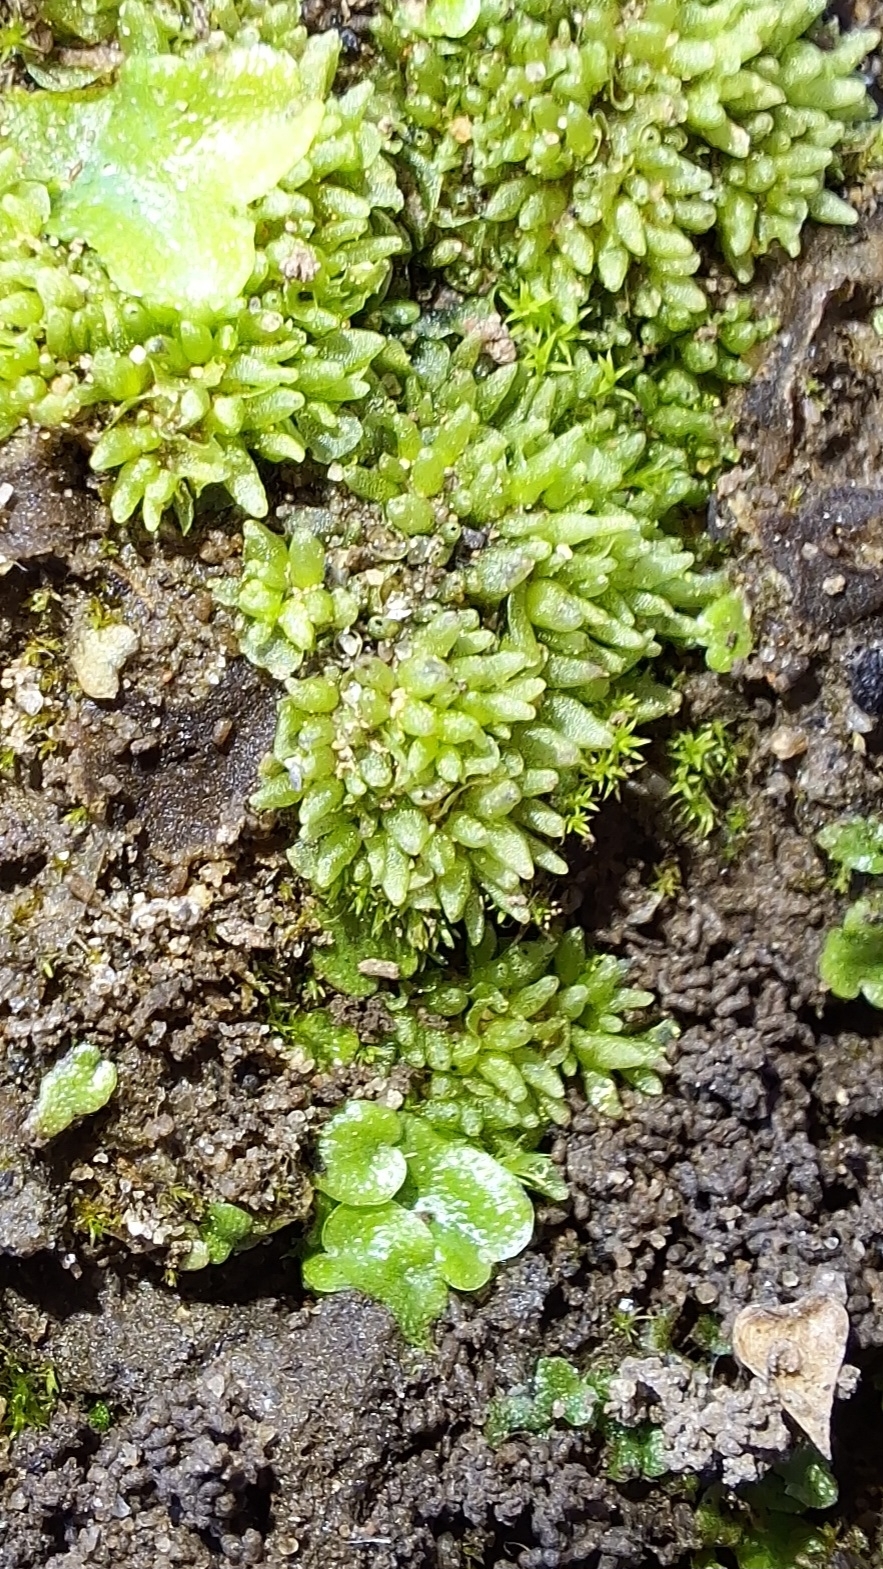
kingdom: Plantae
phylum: Marchantiophyta
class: Marchantiopsida
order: Sphaerocarpales
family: Sphaerocarpaceae
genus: Sphaerocarpos
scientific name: Sphaerocarpos texanus
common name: Texas balloonwort
